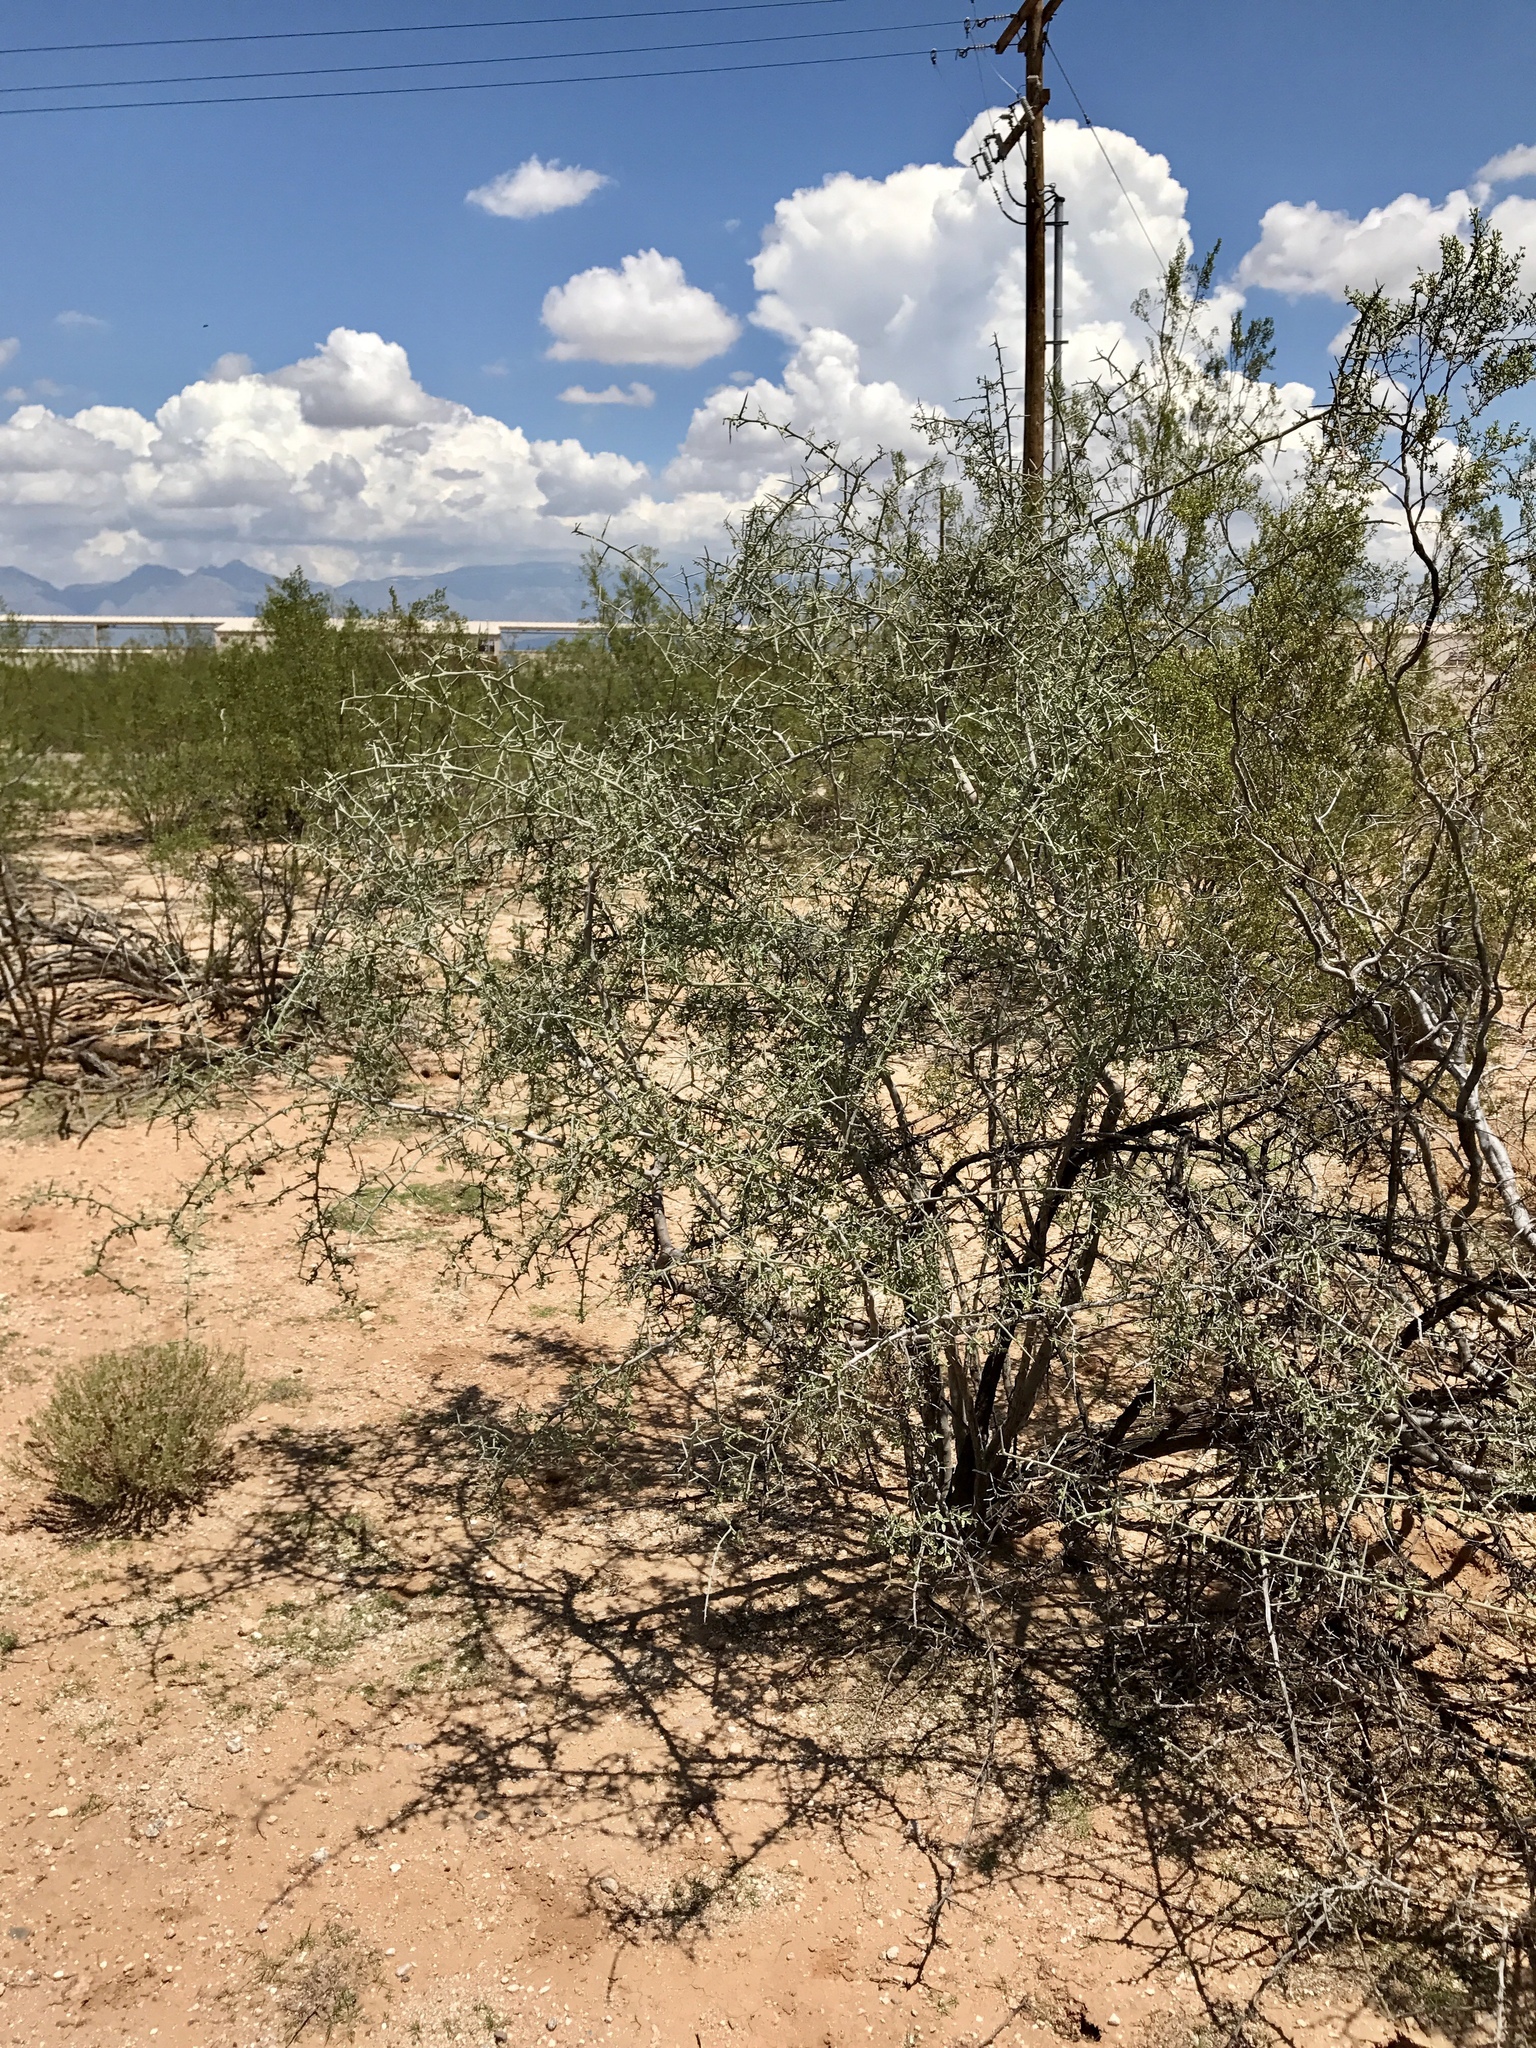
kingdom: Plantae
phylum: Tracheophyta
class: Magnoliopsida
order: Rosales
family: Rhamnaceae
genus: Sarcomphalus
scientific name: Sarcomphalus obtusifolius
